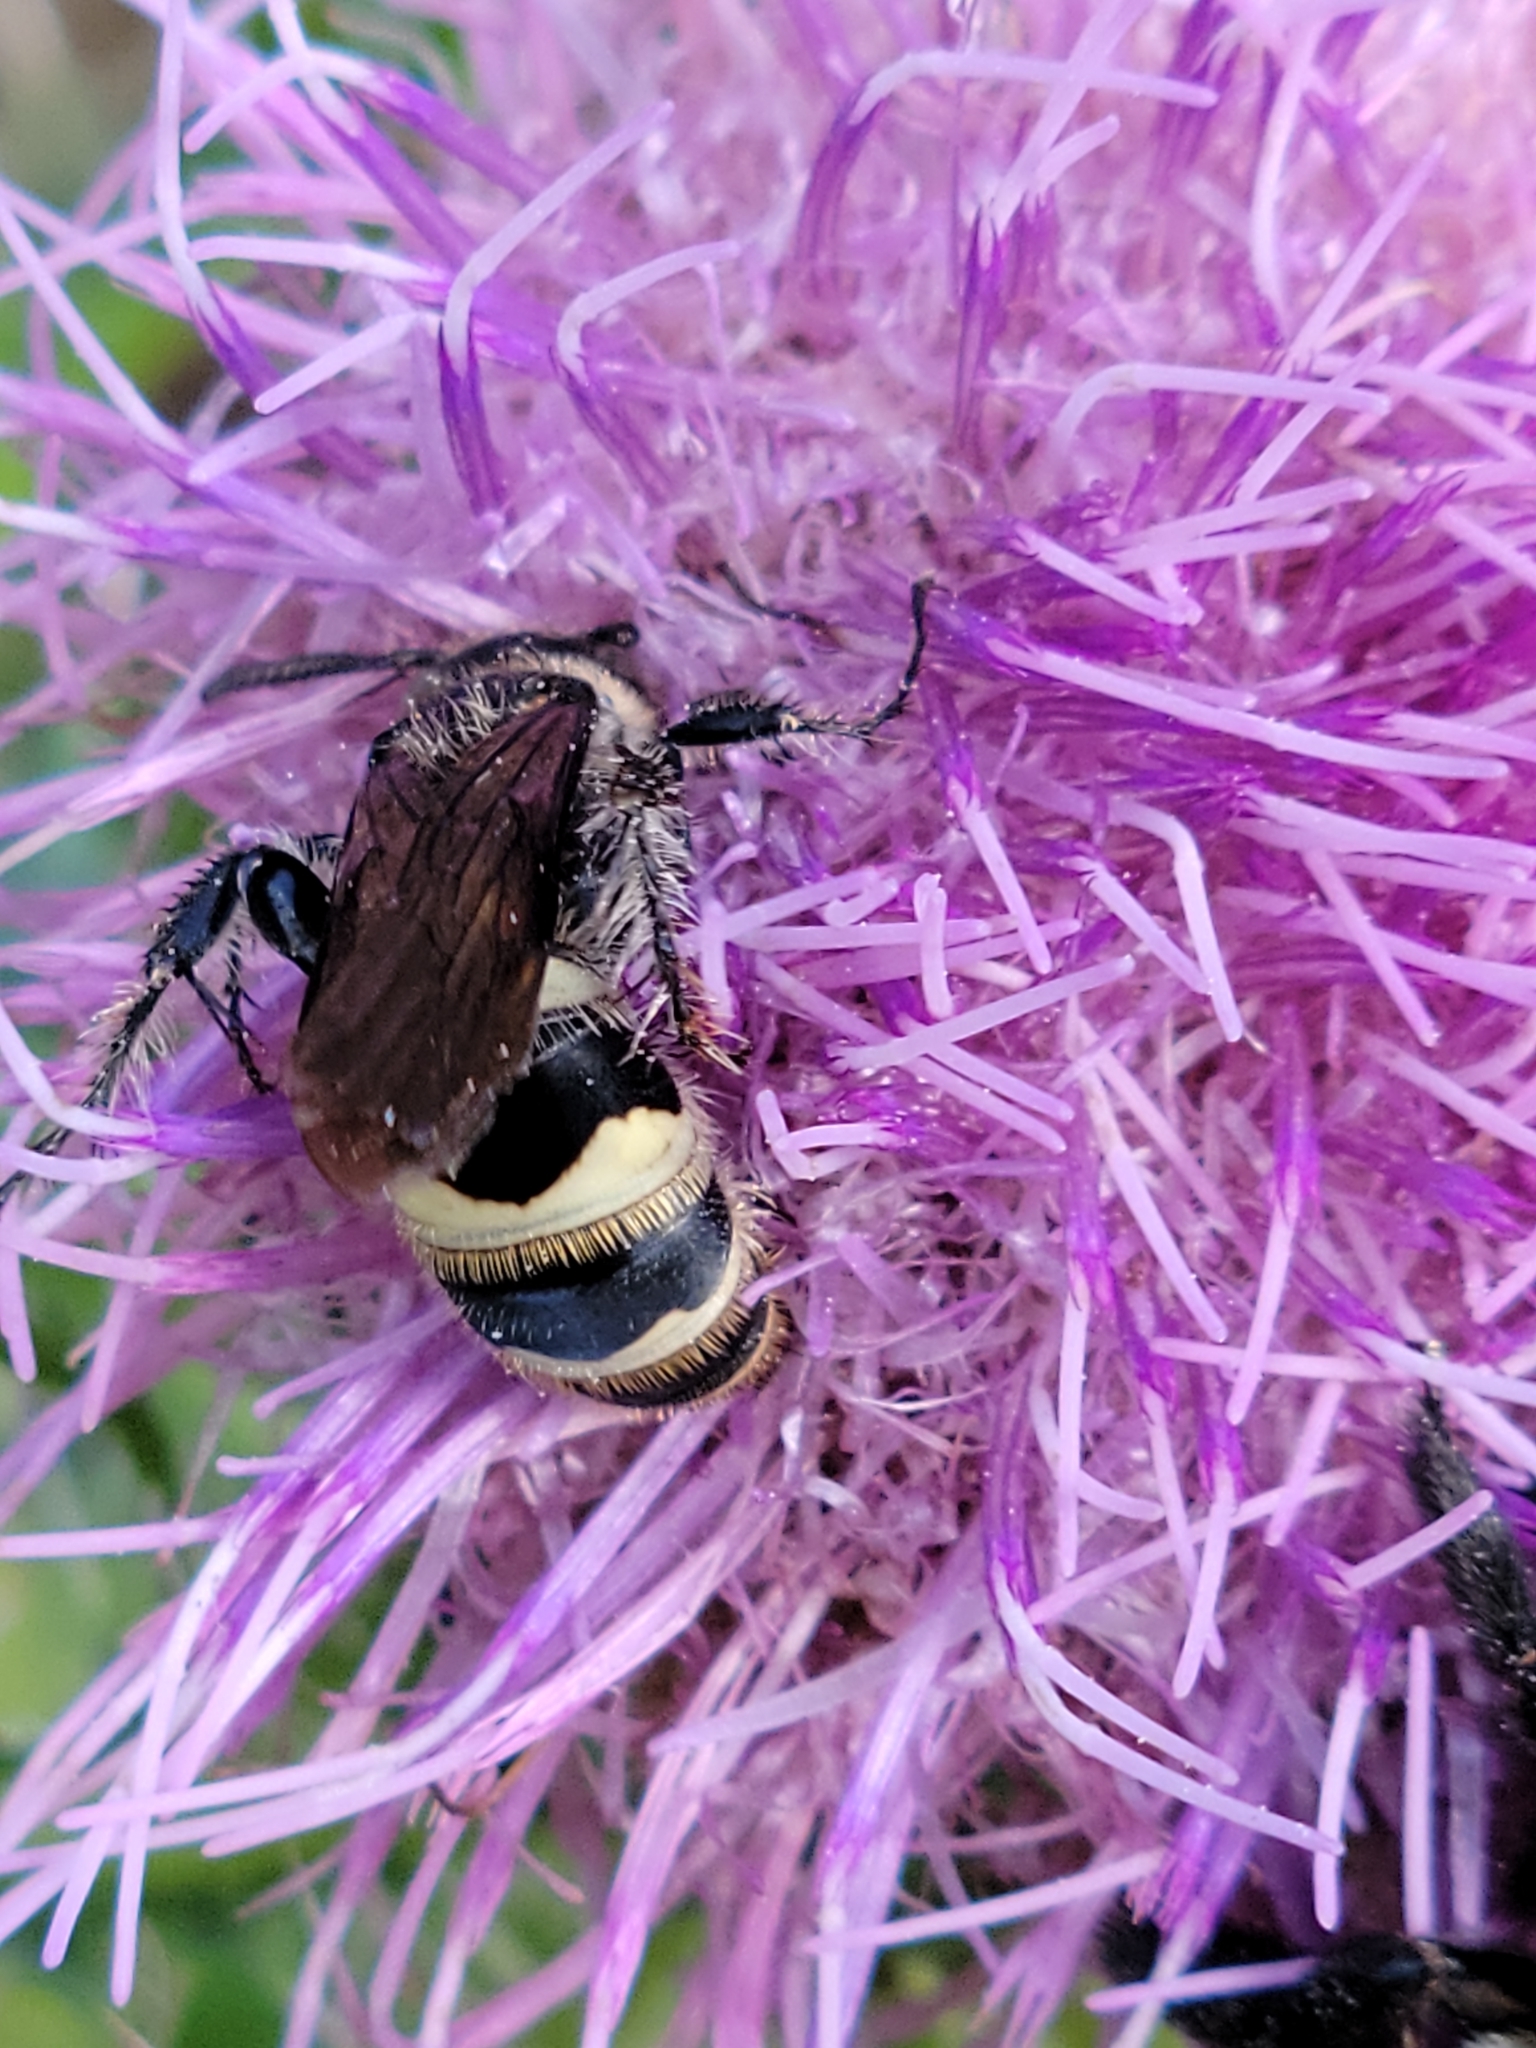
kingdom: Animalia
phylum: Arthropoda
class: Insecta
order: Hymenoptera
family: Scoliidae
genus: Dielis
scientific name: Dielis
